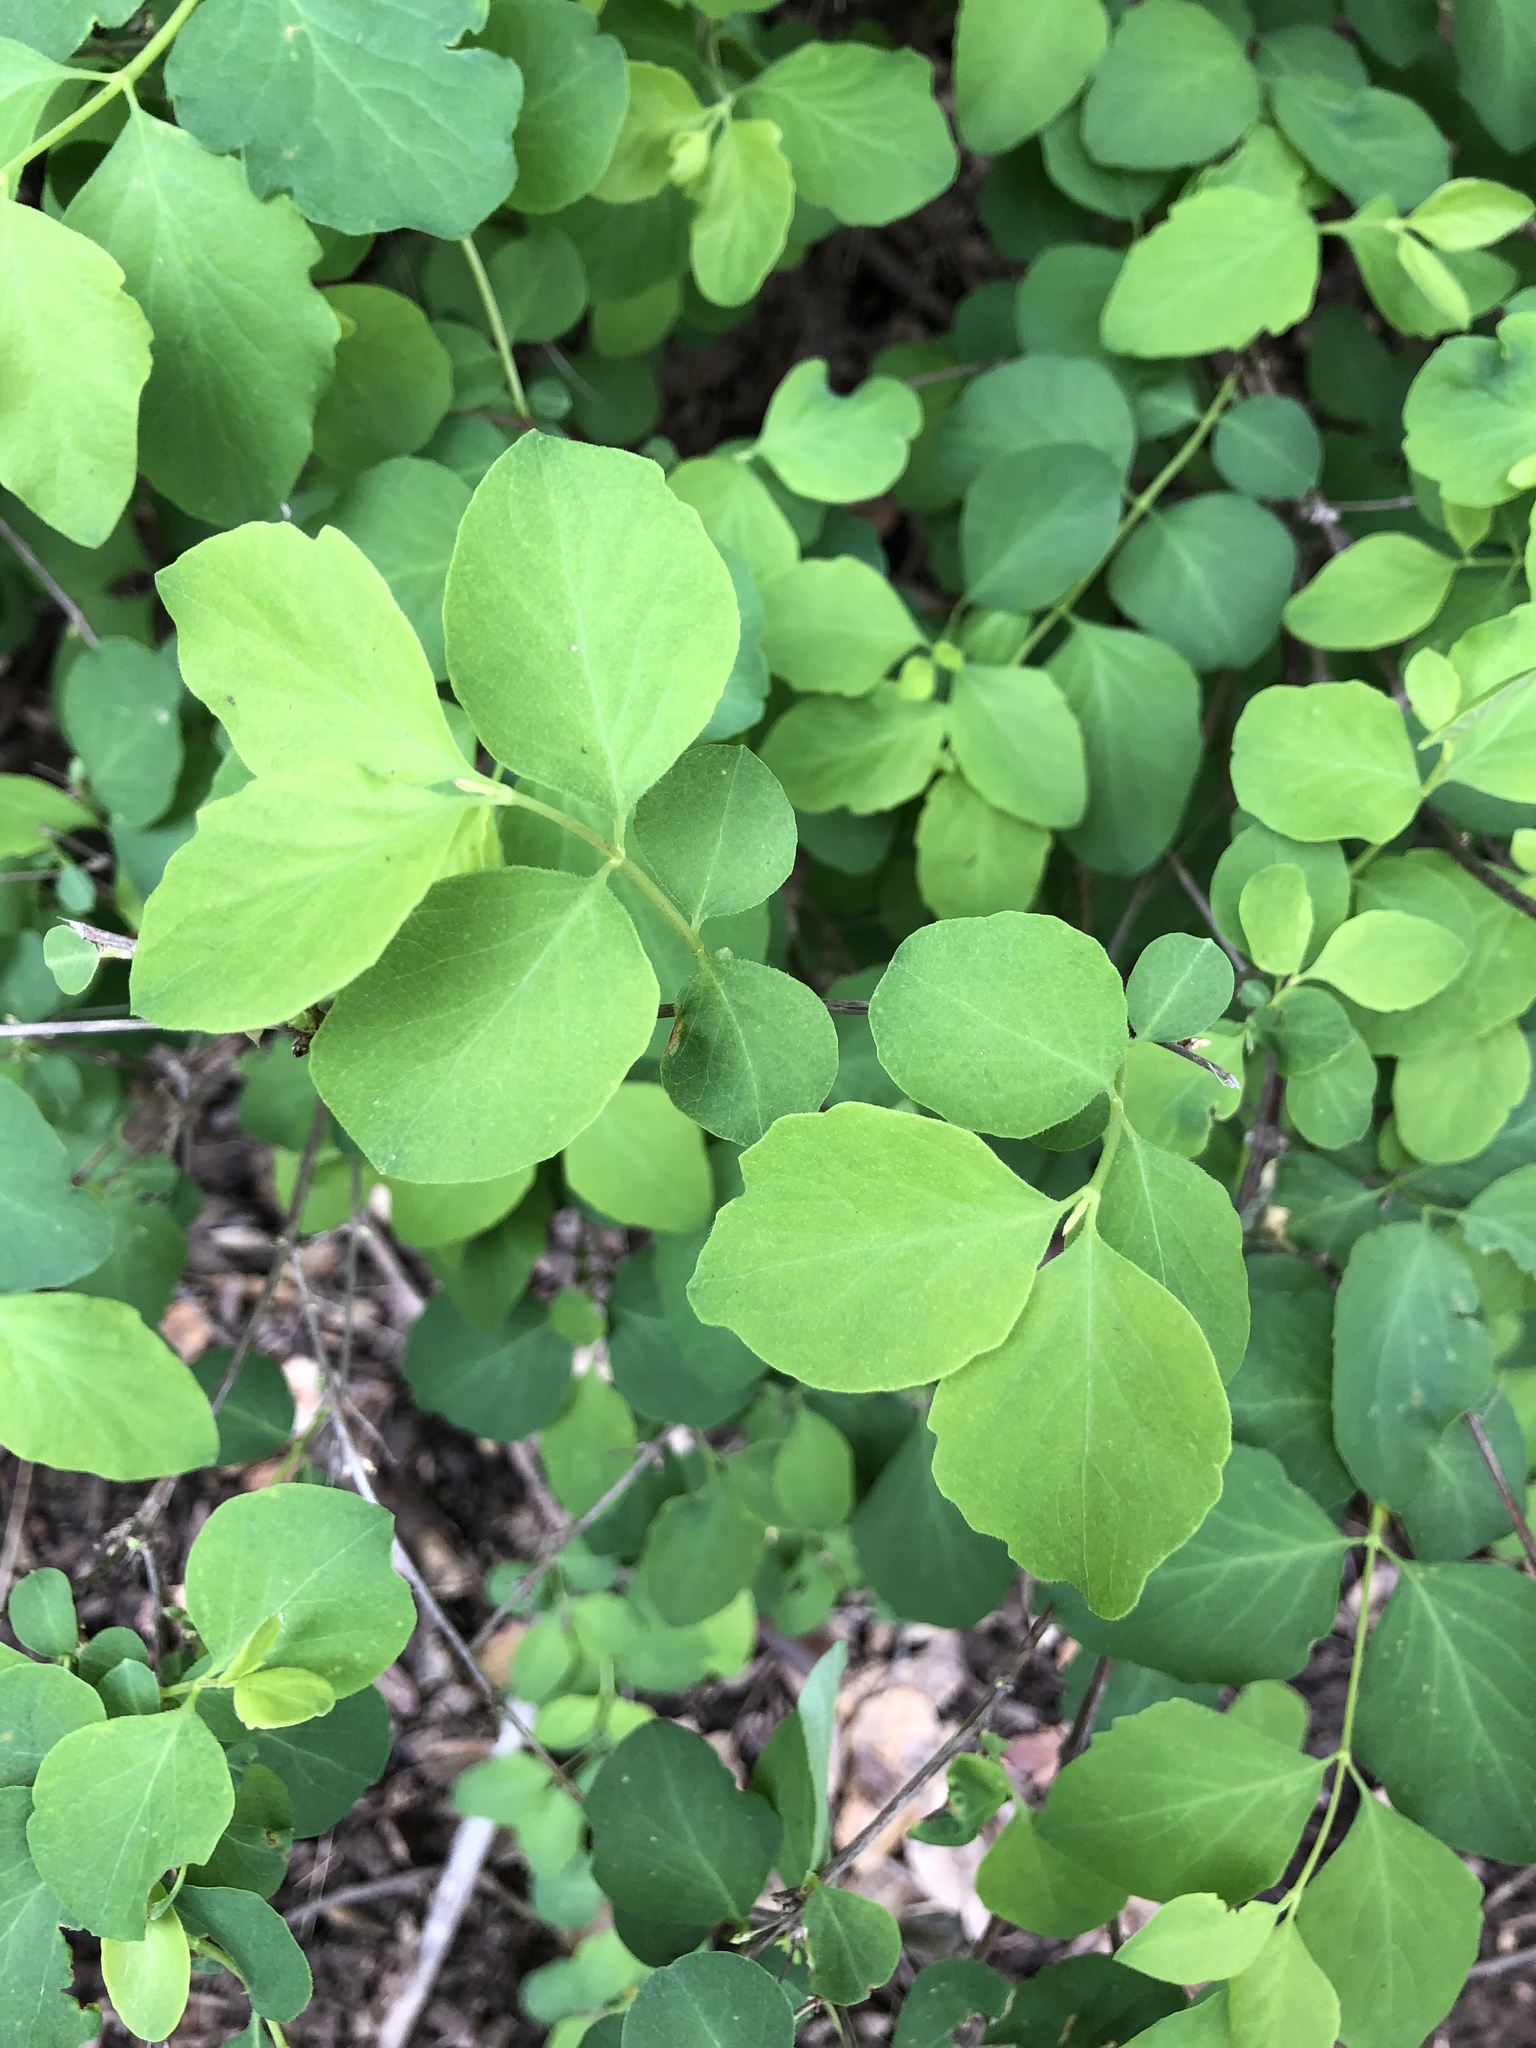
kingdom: Plantae
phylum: Tracheophyta
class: Magnoliopsida
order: Dipsacales
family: Caprifoliaceae
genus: Symphoricarpos
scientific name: Symphoricarpos albus
